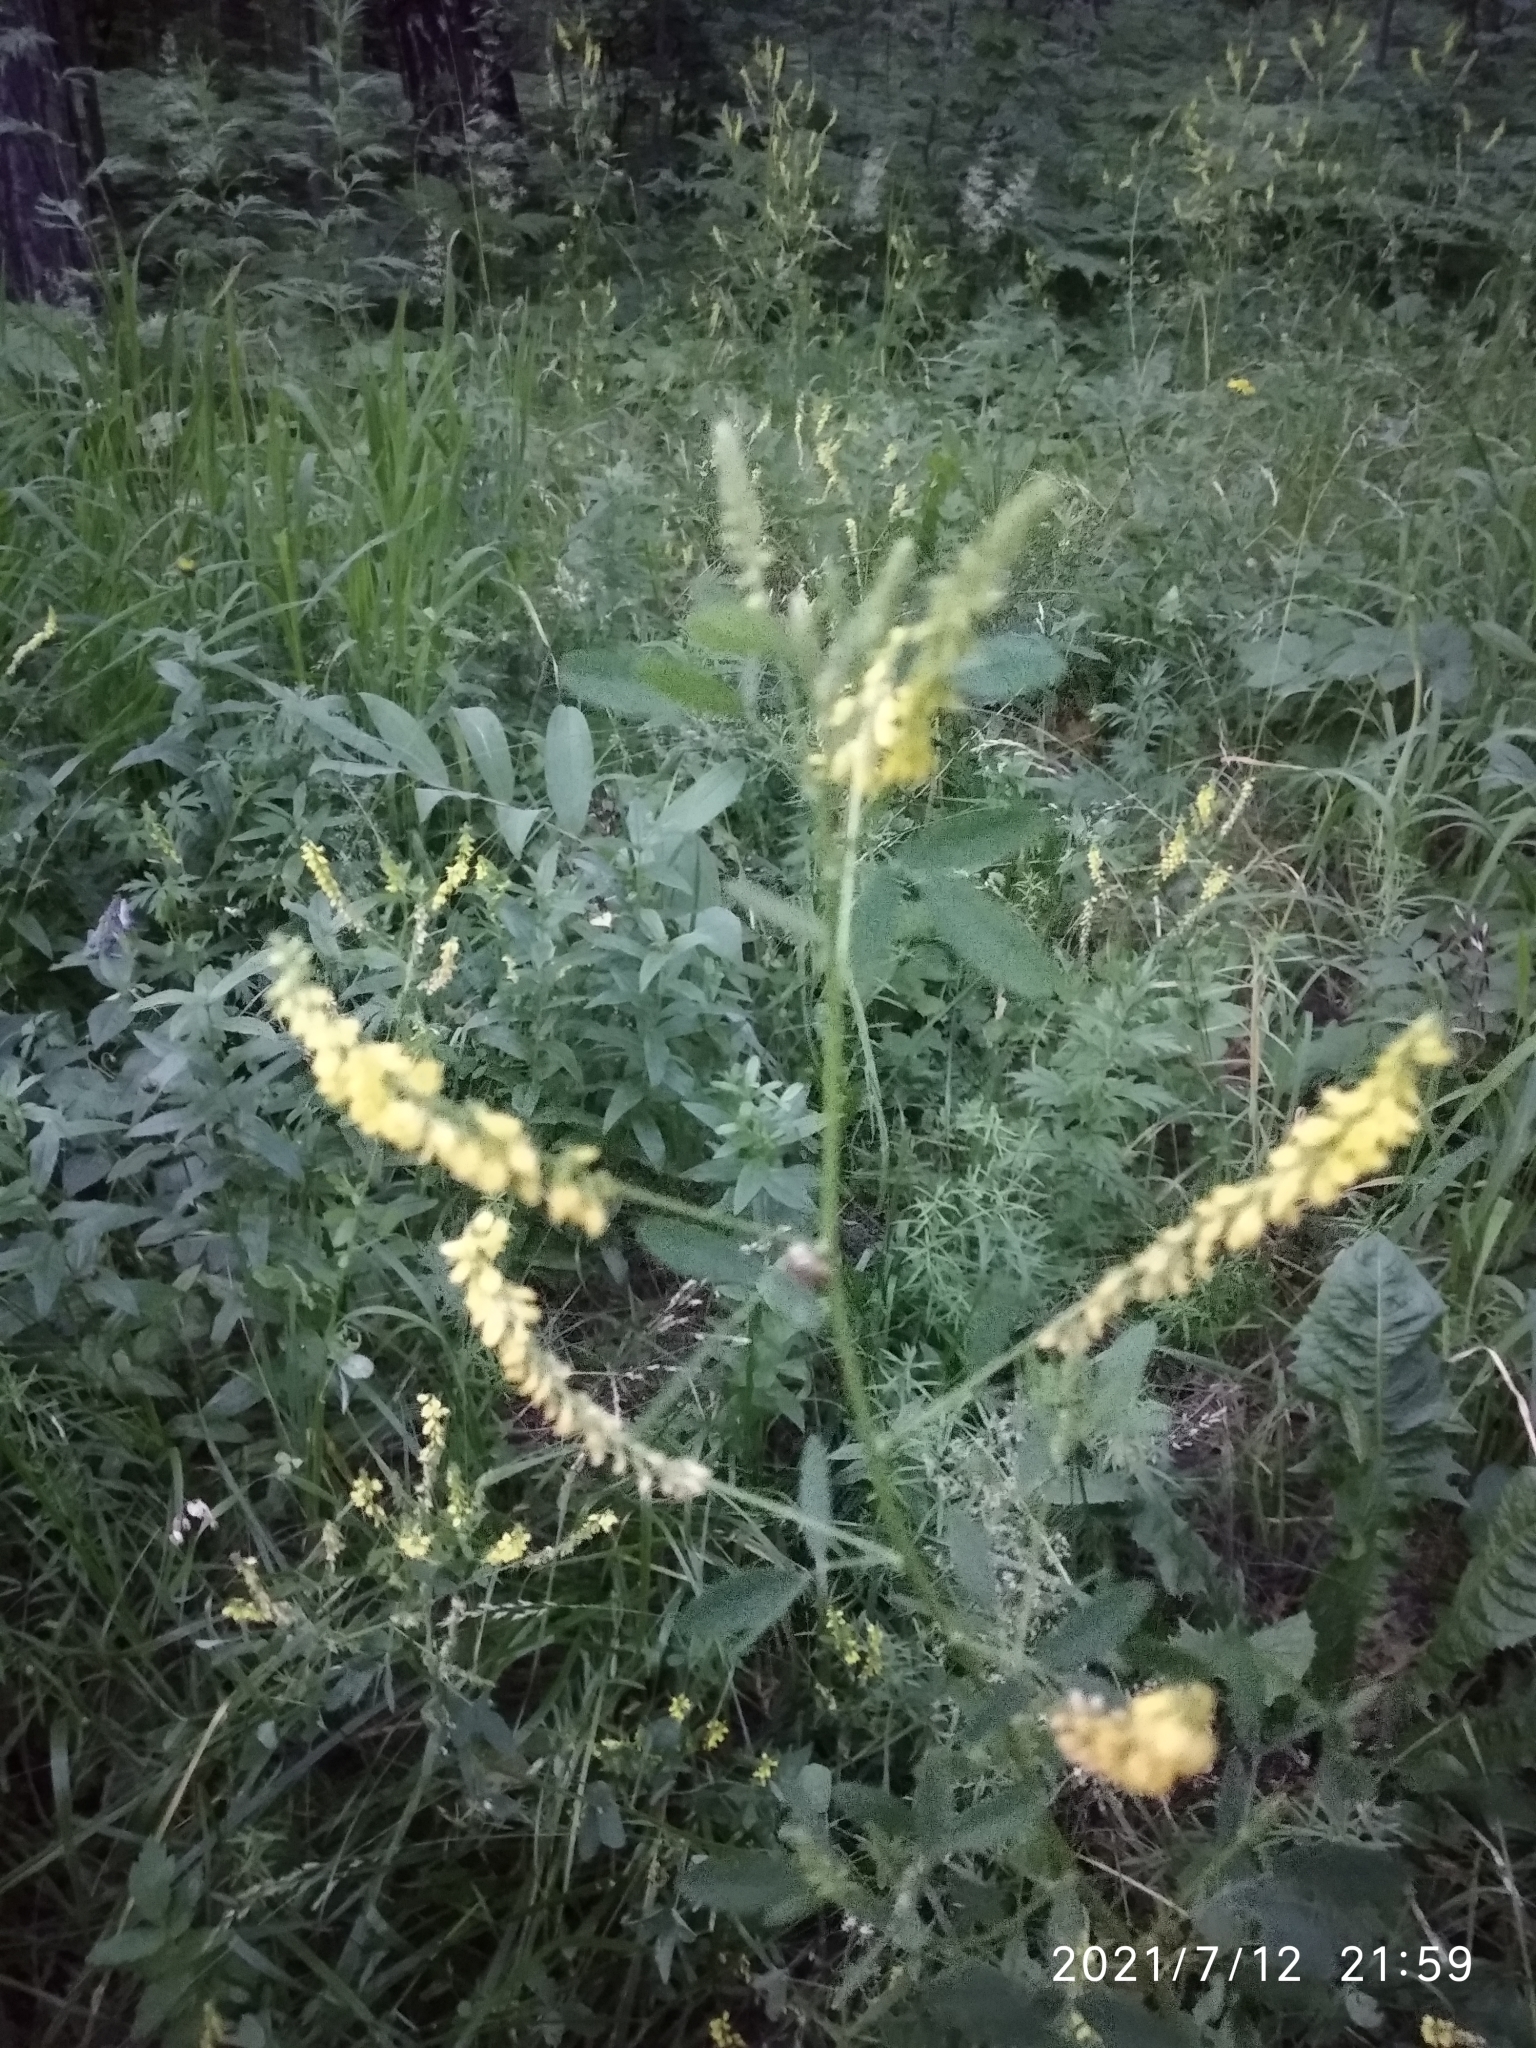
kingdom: Plantae
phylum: Tracheophyta
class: Magnoliopsida
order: Fabales
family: Fabaceae
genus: Melilotus
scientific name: Melilotus officinalis
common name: Sweetclover
